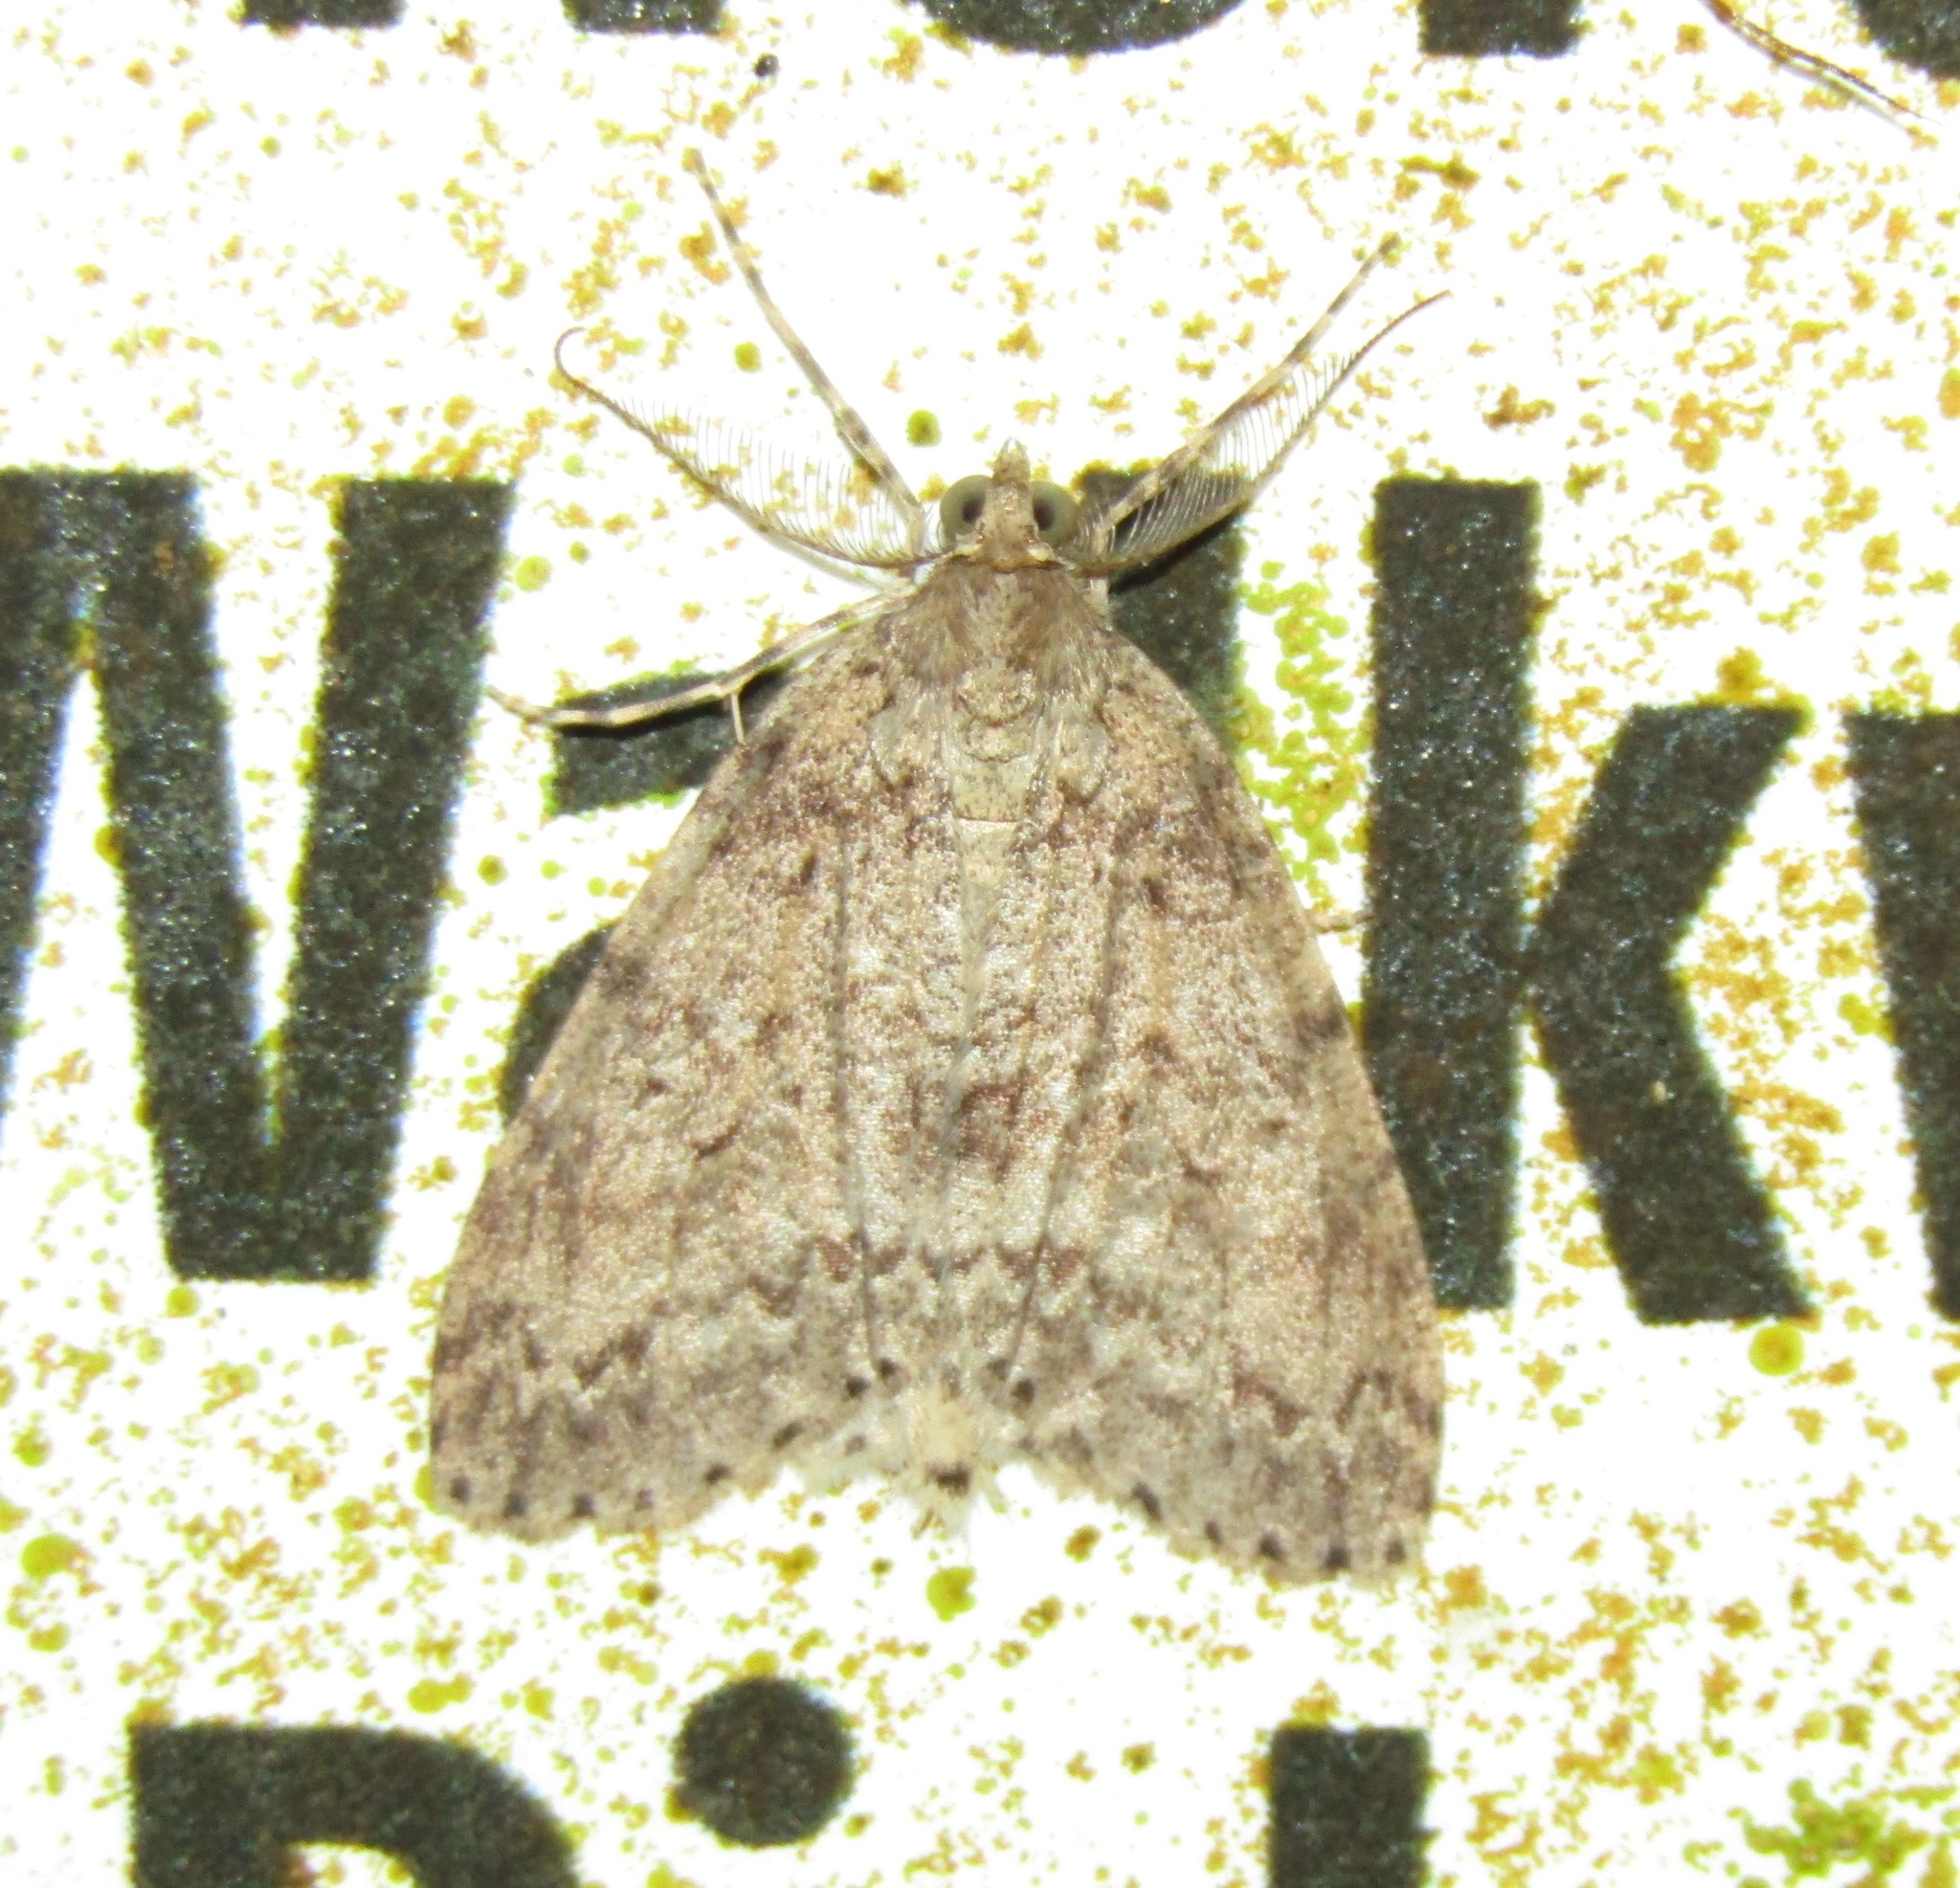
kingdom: Animalia
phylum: Arthropoda
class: Insecta
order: Lepidoptera
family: Geometridae
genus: Pseudocoremia
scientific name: Pseudocoremia fenerata
